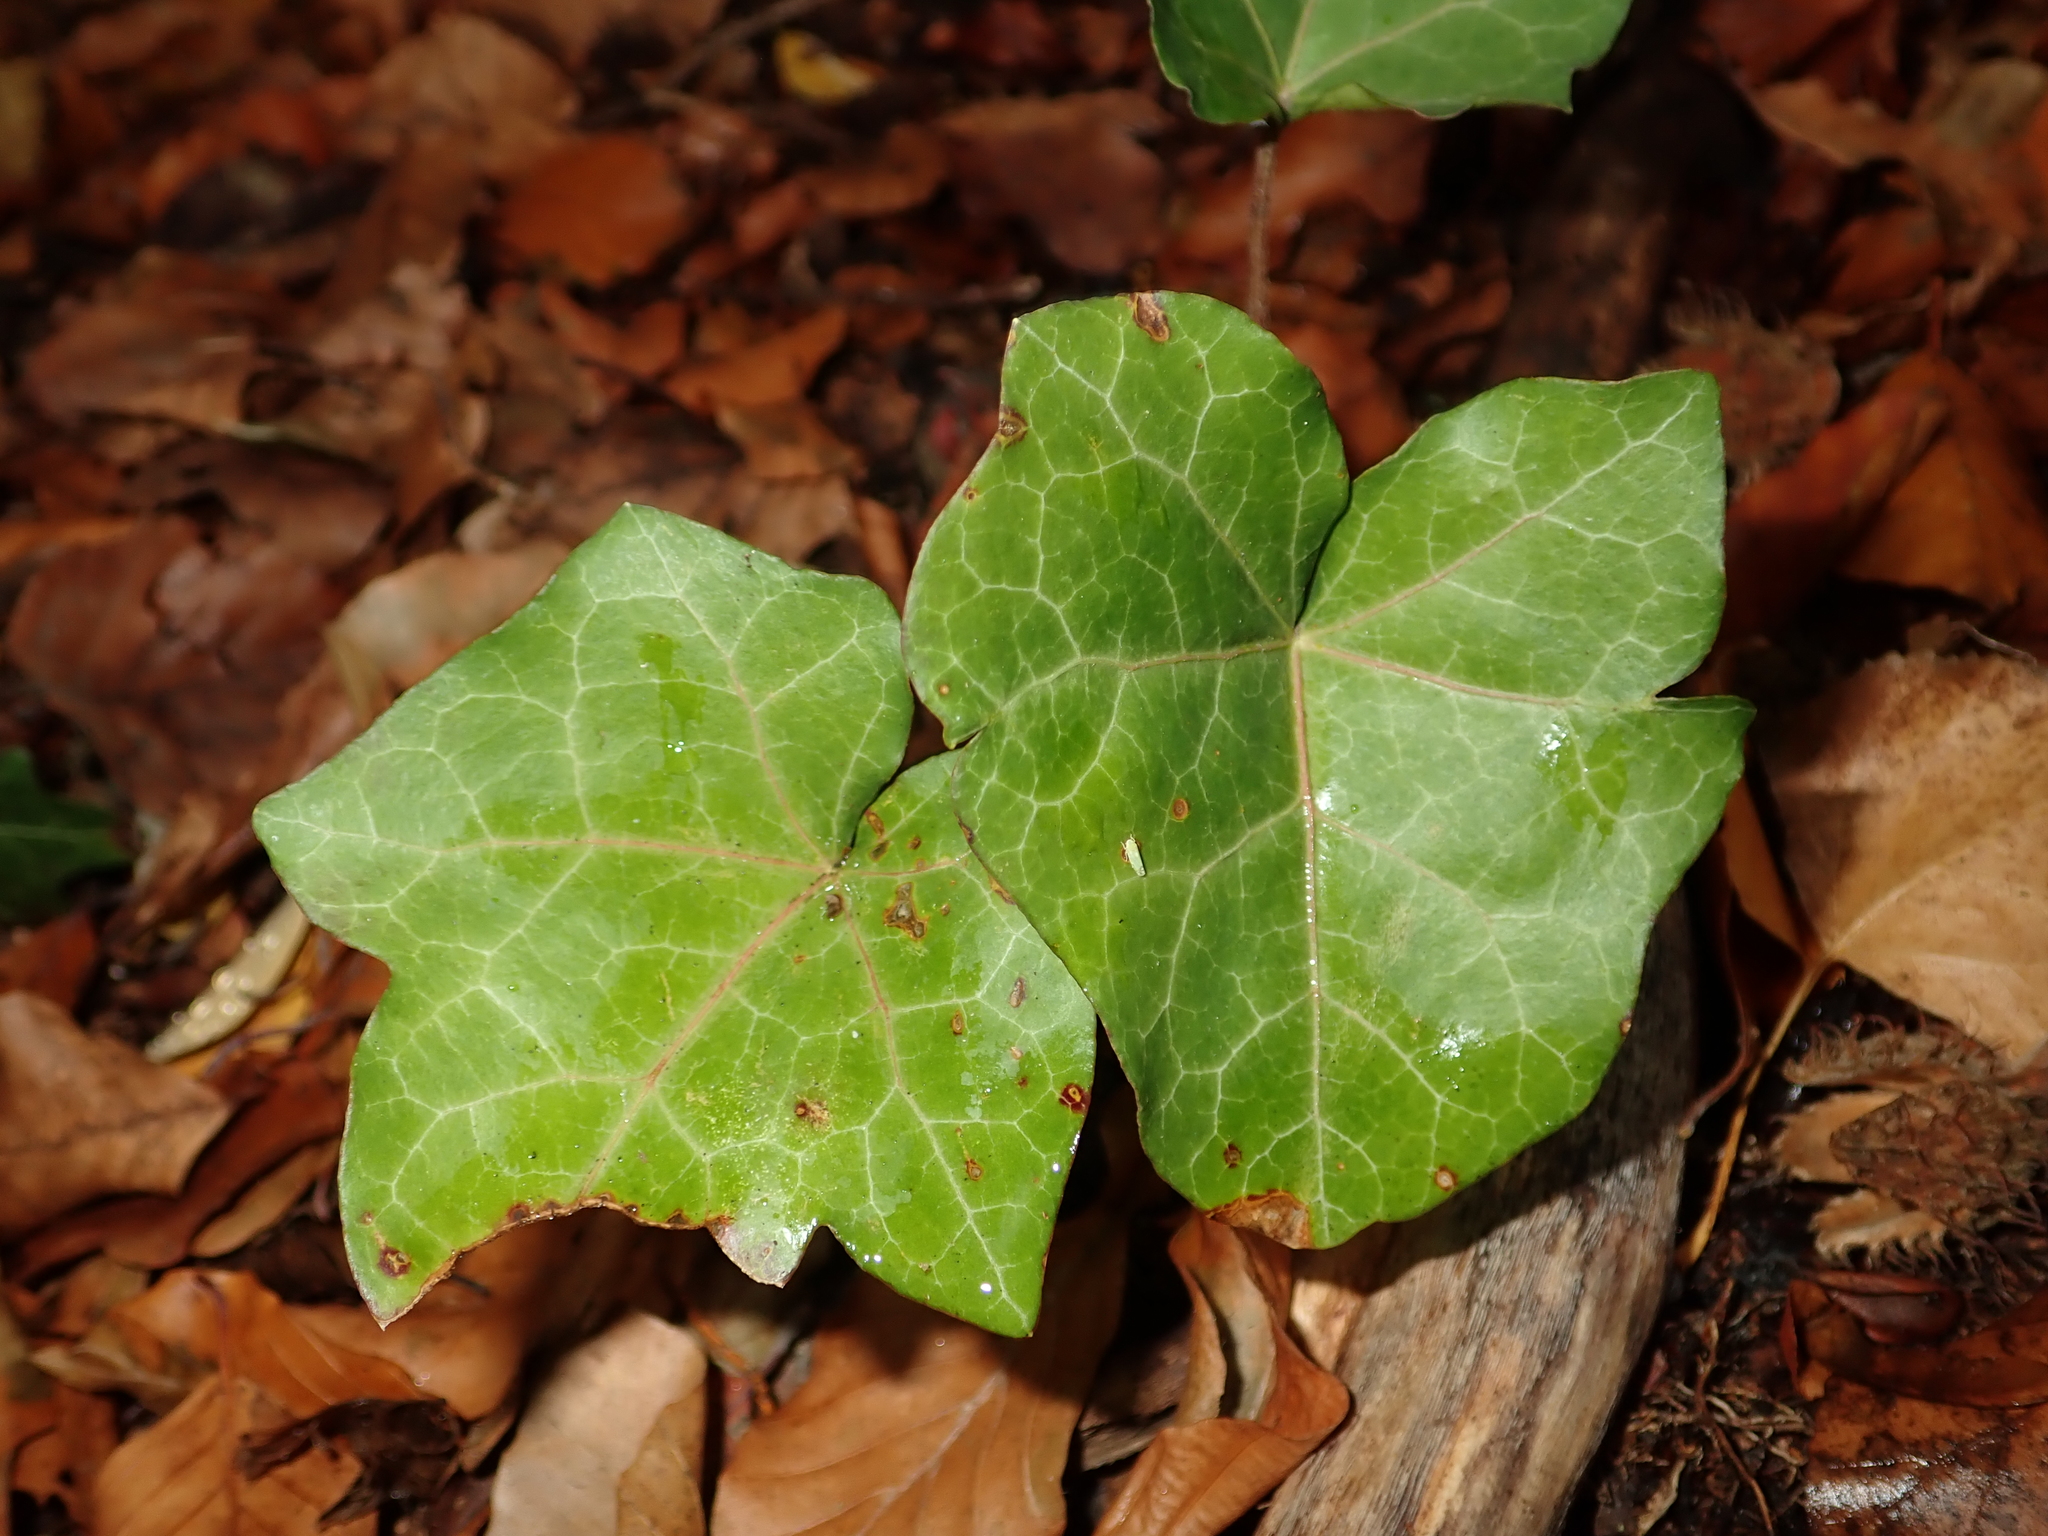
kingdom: Plantae
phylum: Tracheophyta
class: Magnoliopsida
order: Apiales
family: Araliaceae
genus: Hedera
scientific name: Hedera helix
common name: Ivy
